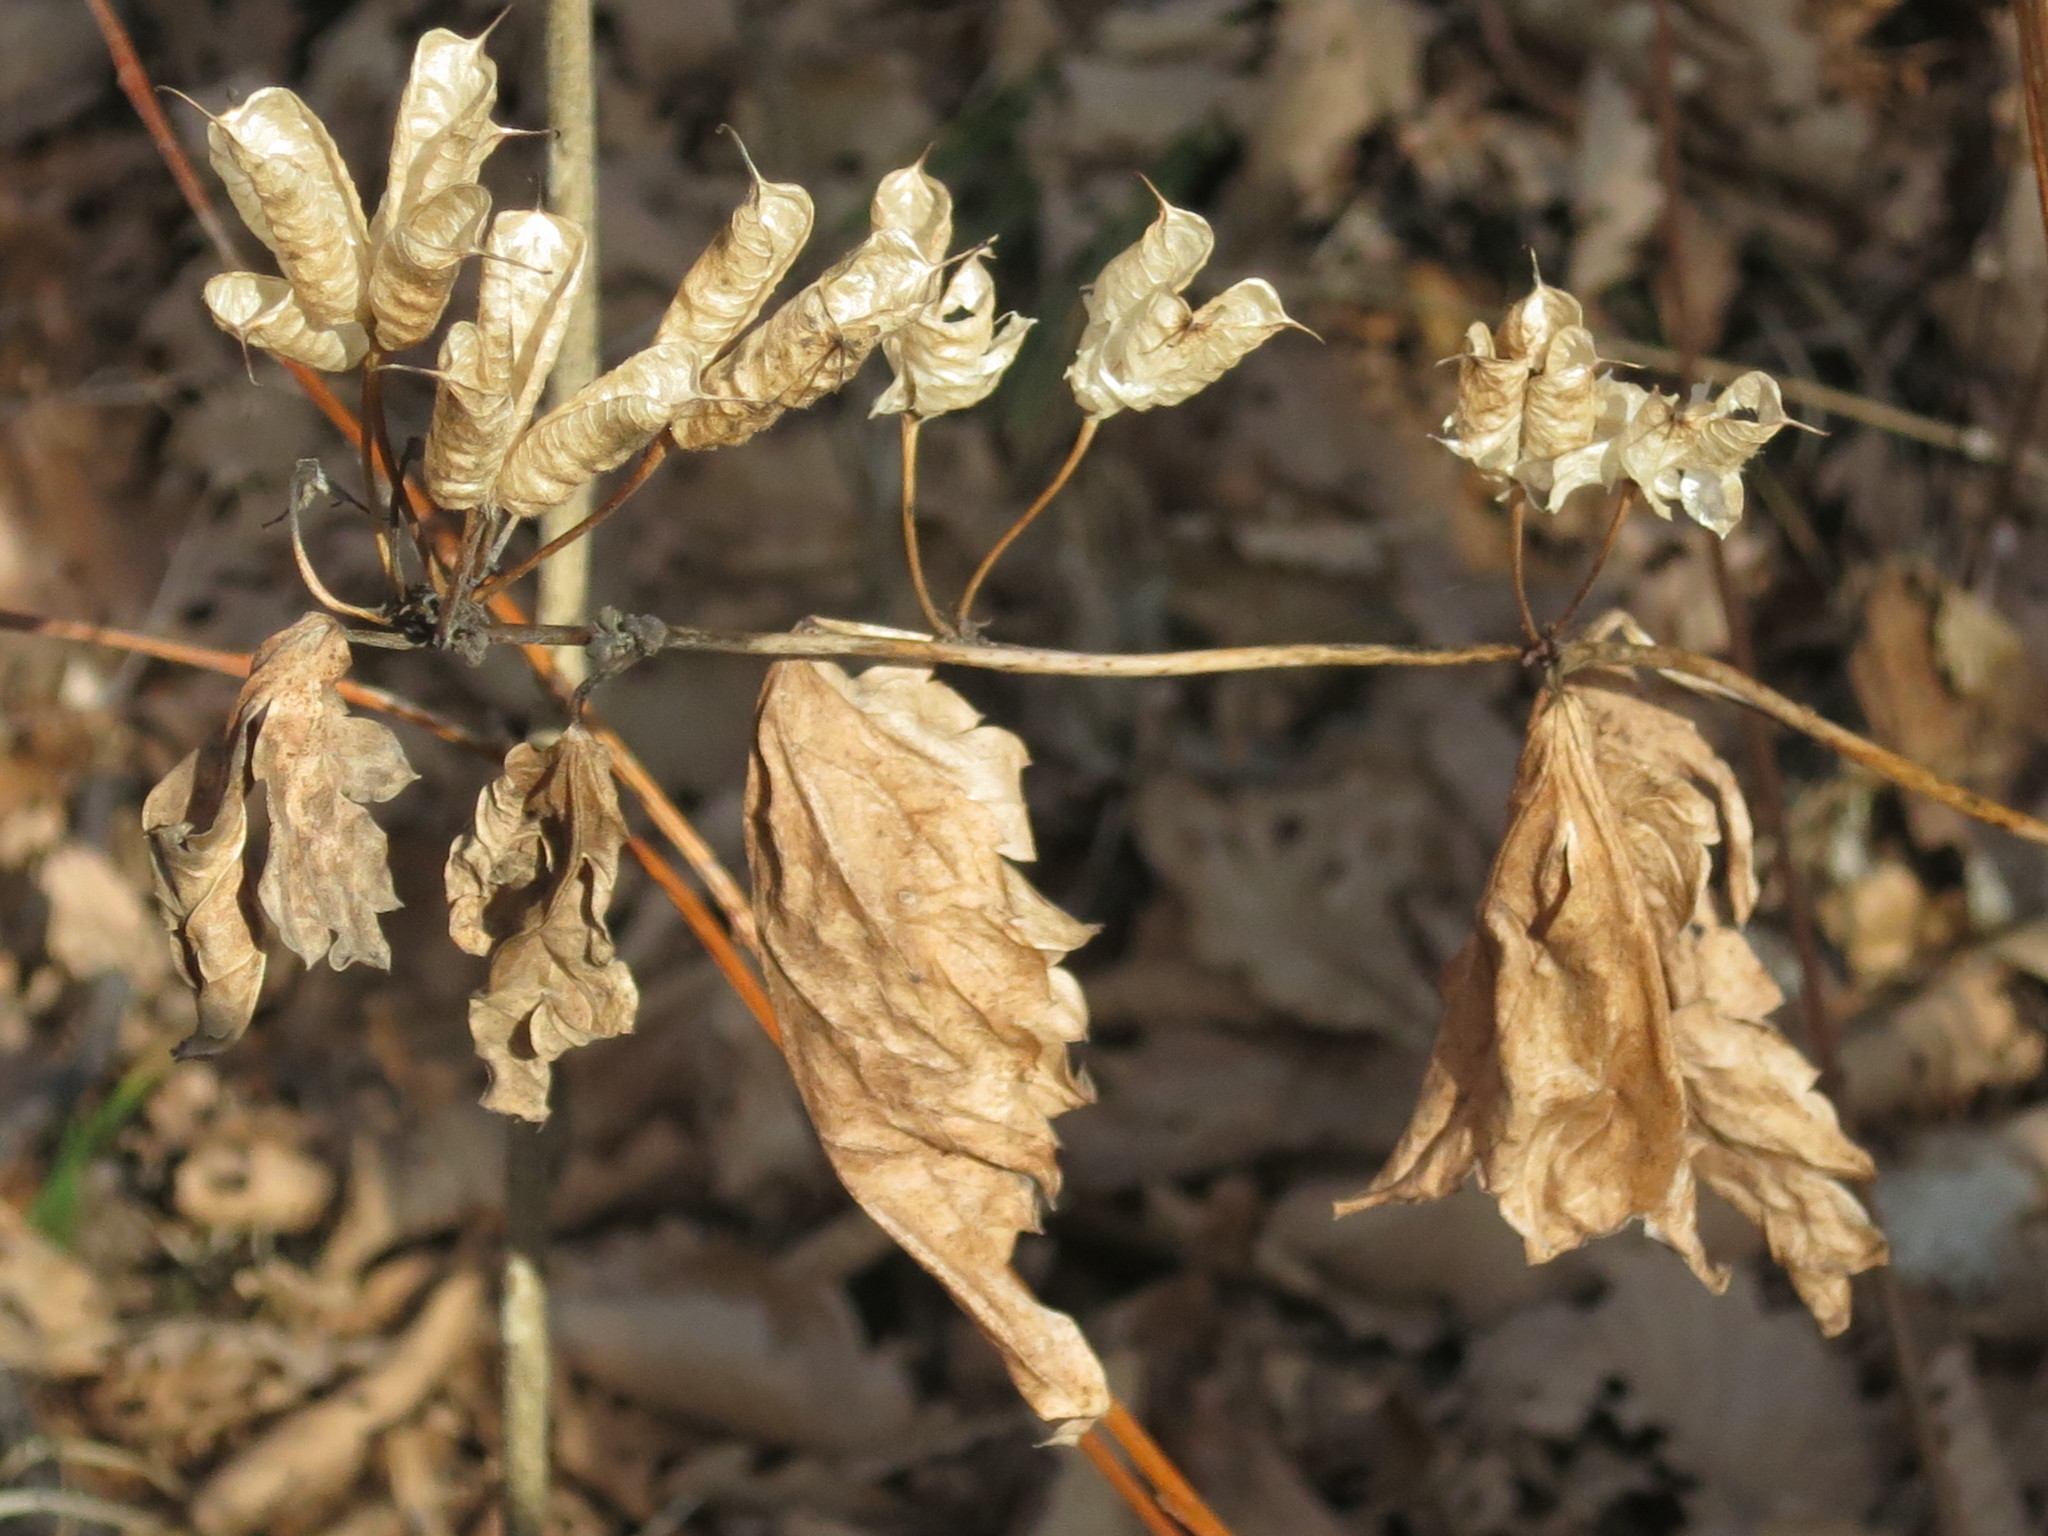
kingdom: Plantae
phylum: Tracheophyta
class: Magnoliopsida
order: Ranunculales
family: Ranunculaceae
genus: Aconitum
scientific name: Aconitum sczukinii
